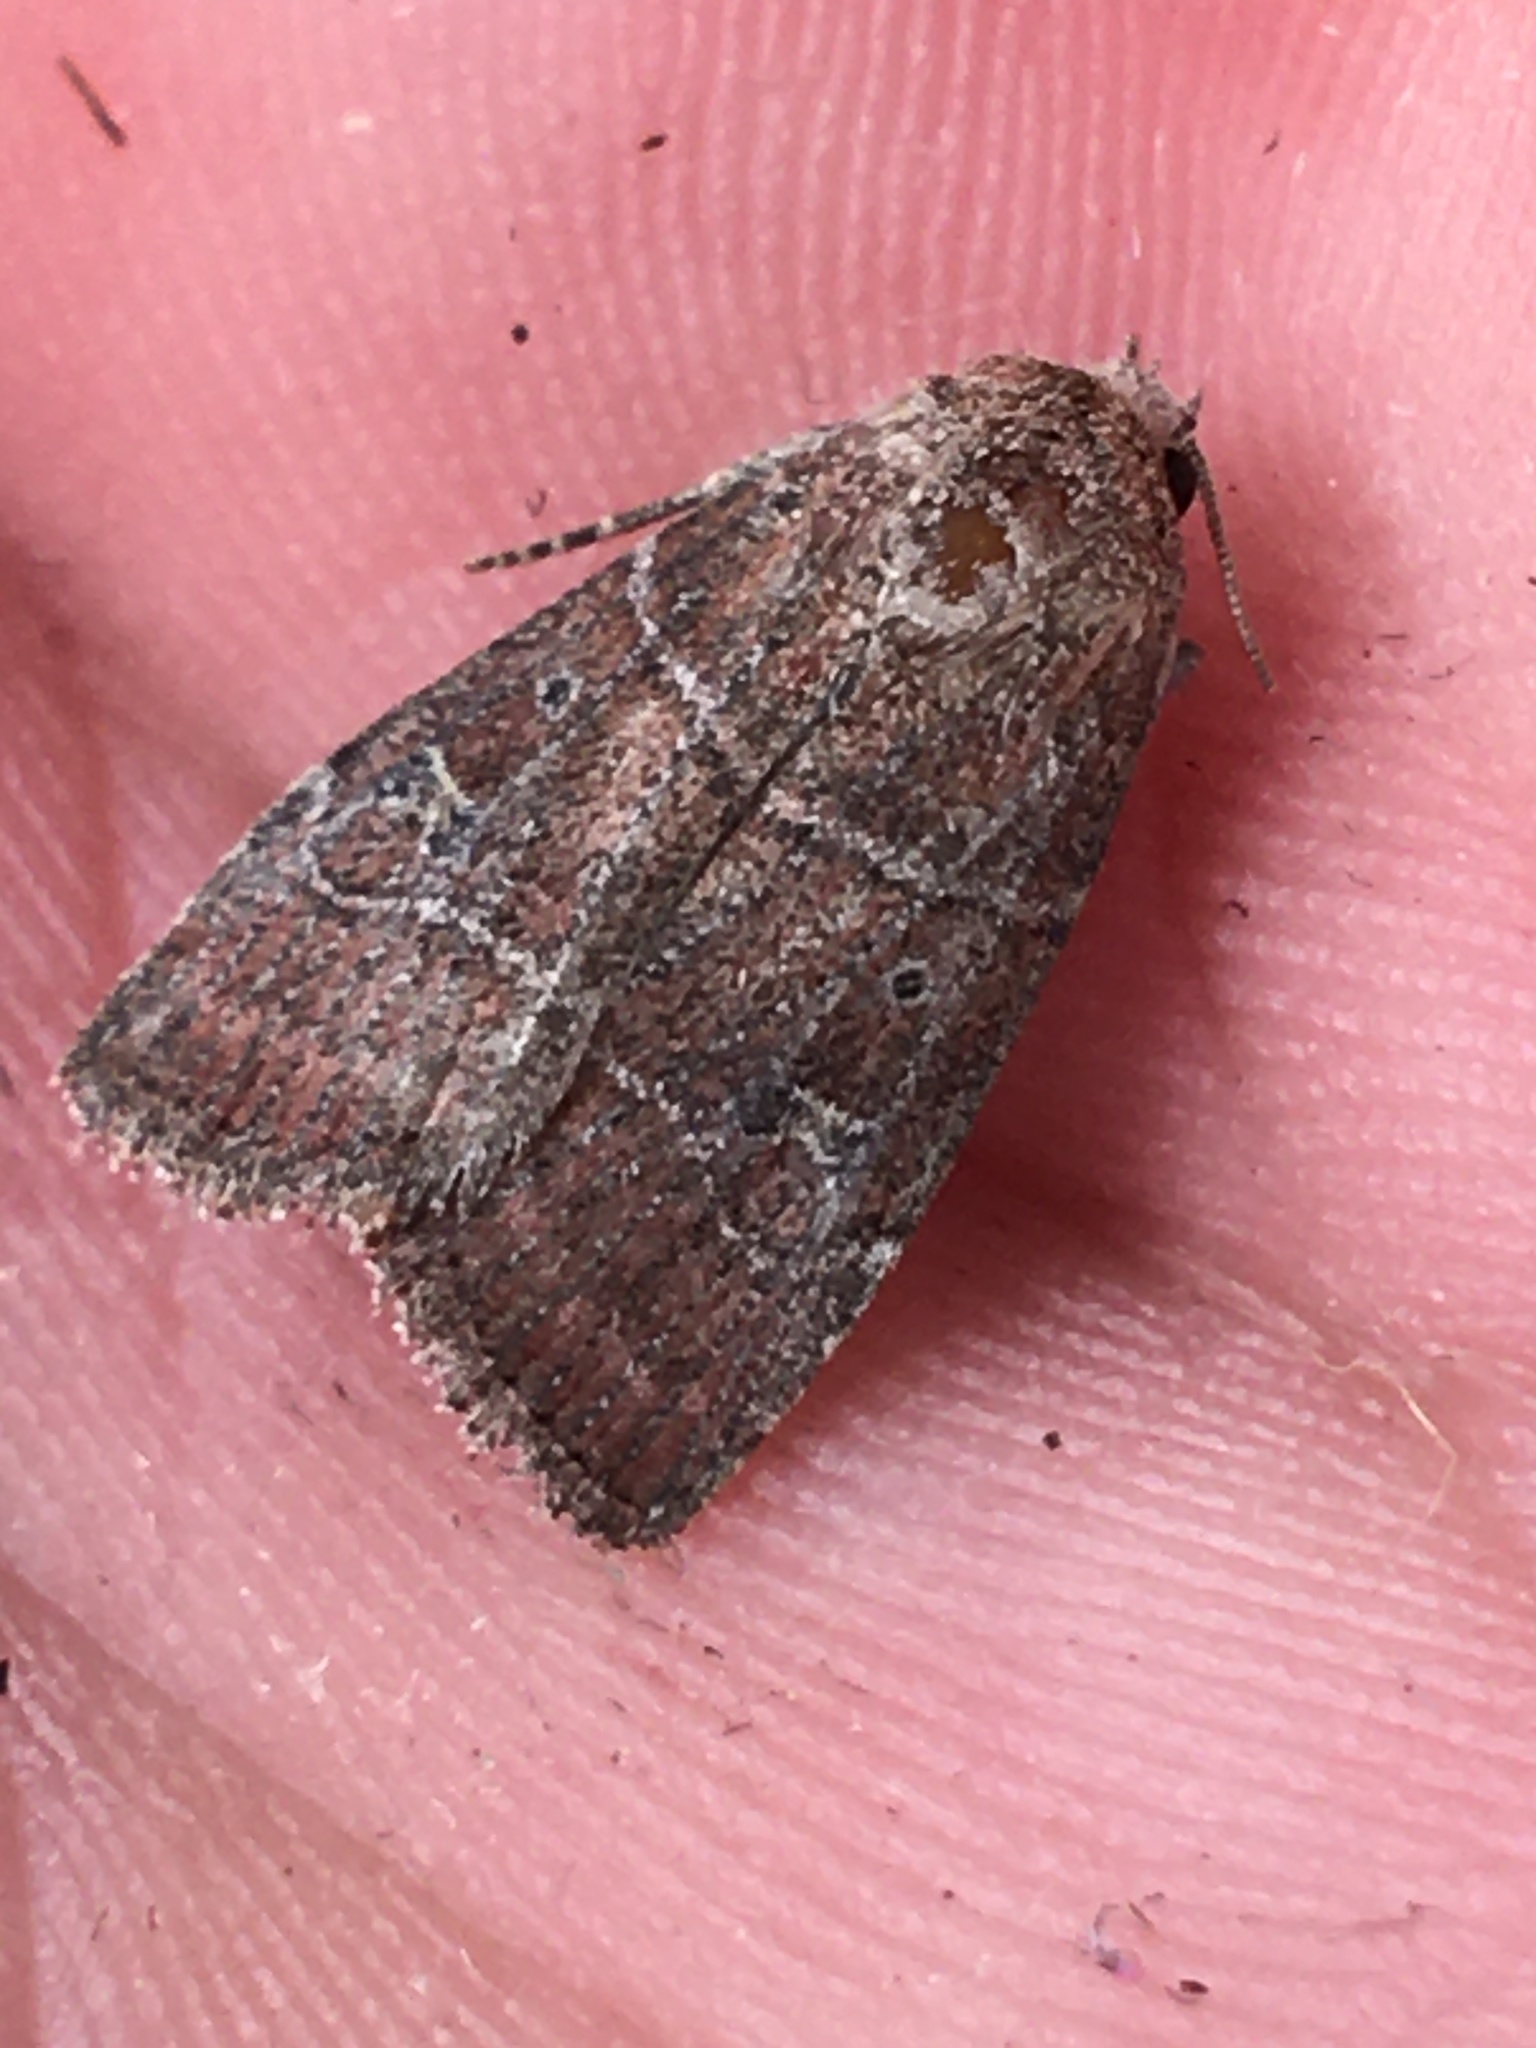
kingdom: Animalia
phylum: Arthropoda
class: Insecta
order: Lepidoptera
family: Noctuidae
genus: Elaphria
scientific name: Elaphria grata
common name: Grateful midget moth
